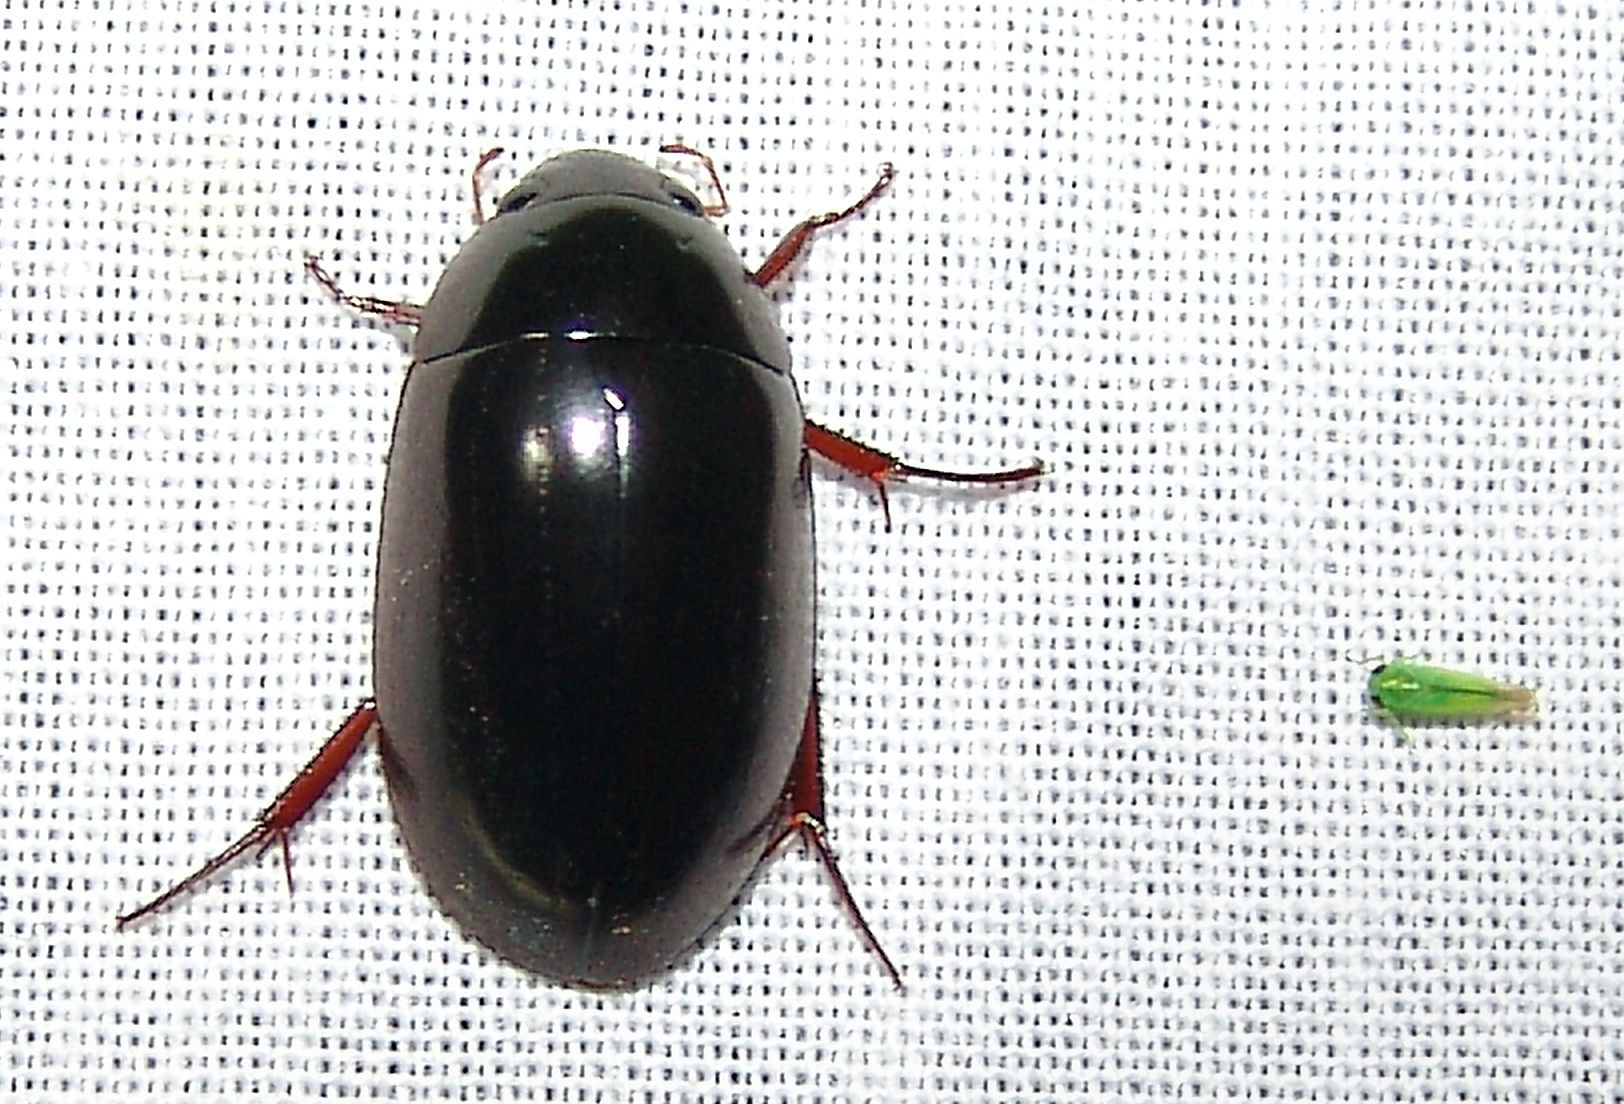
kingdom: Animalia
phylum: Arthropoda
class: Insecta
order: Coleoptera
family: Hydrophilidae
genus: Hydrochara
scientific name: Hydrochara soror
